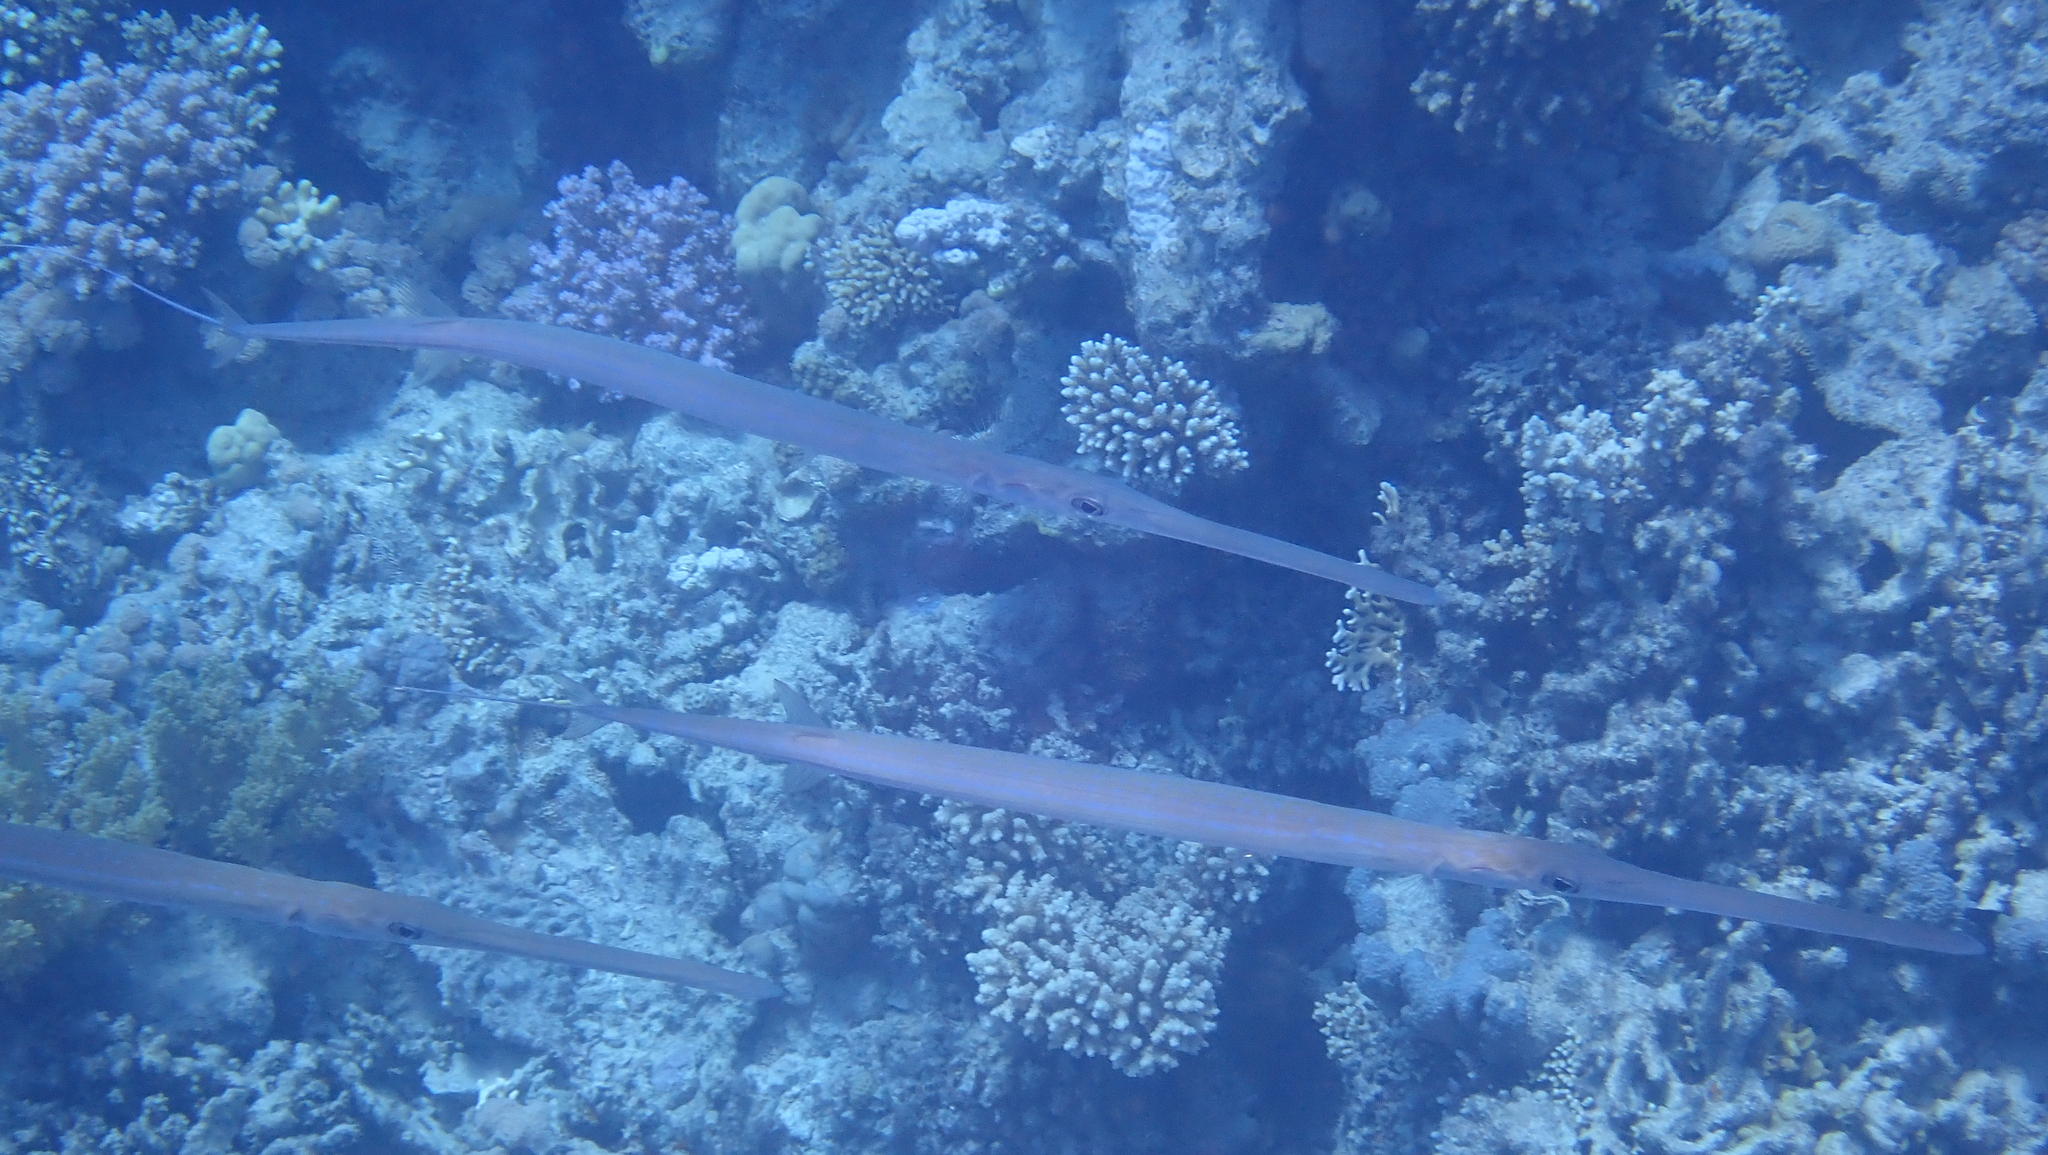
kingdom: Animalia
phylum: Chordata
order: Syngnathiformes
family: Fistulariidae
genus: Fistularia
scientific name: Fistularia commersonii
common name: Bluespotted cornetfish
